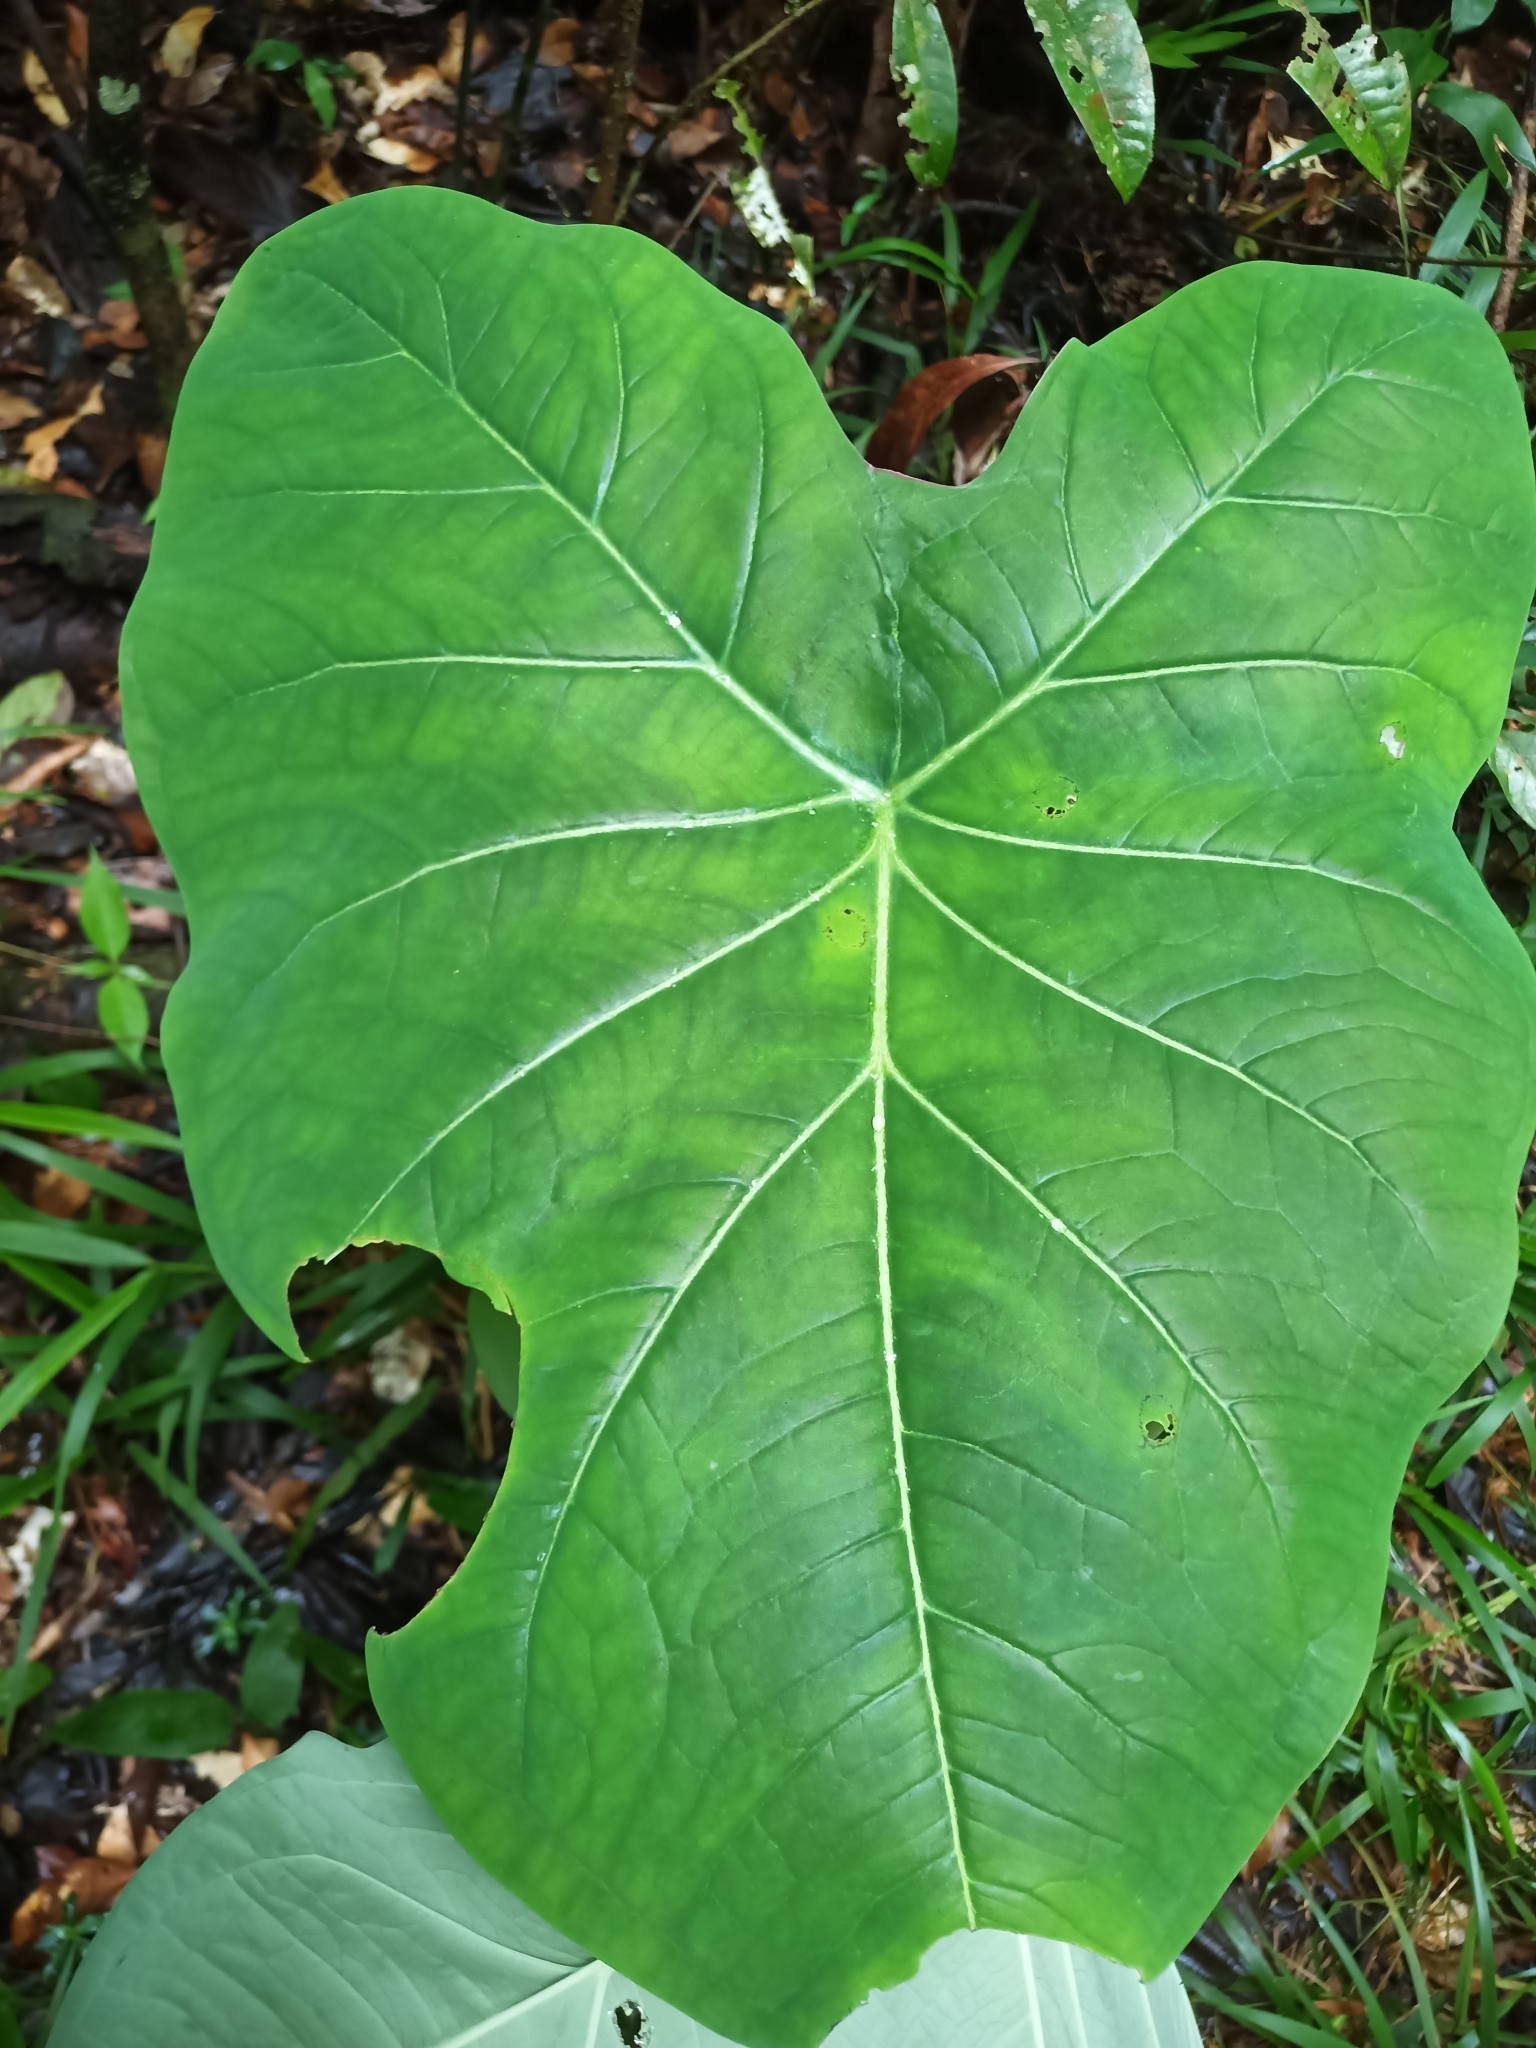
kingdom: Plantae
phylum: Tracheophyta
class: Liliopsida
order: Alismatales
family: Araceae
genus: Caladium
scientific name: Caladium bicolor
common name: Artist's pallet
